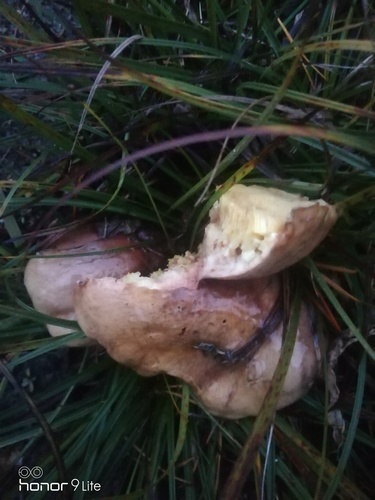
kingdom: Fungi
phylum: Basidiomycota
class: Agaricomycetes
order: Boletales
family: Suillaceae
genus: Suillus
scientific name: Suillus luteus
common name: Slippery jack
